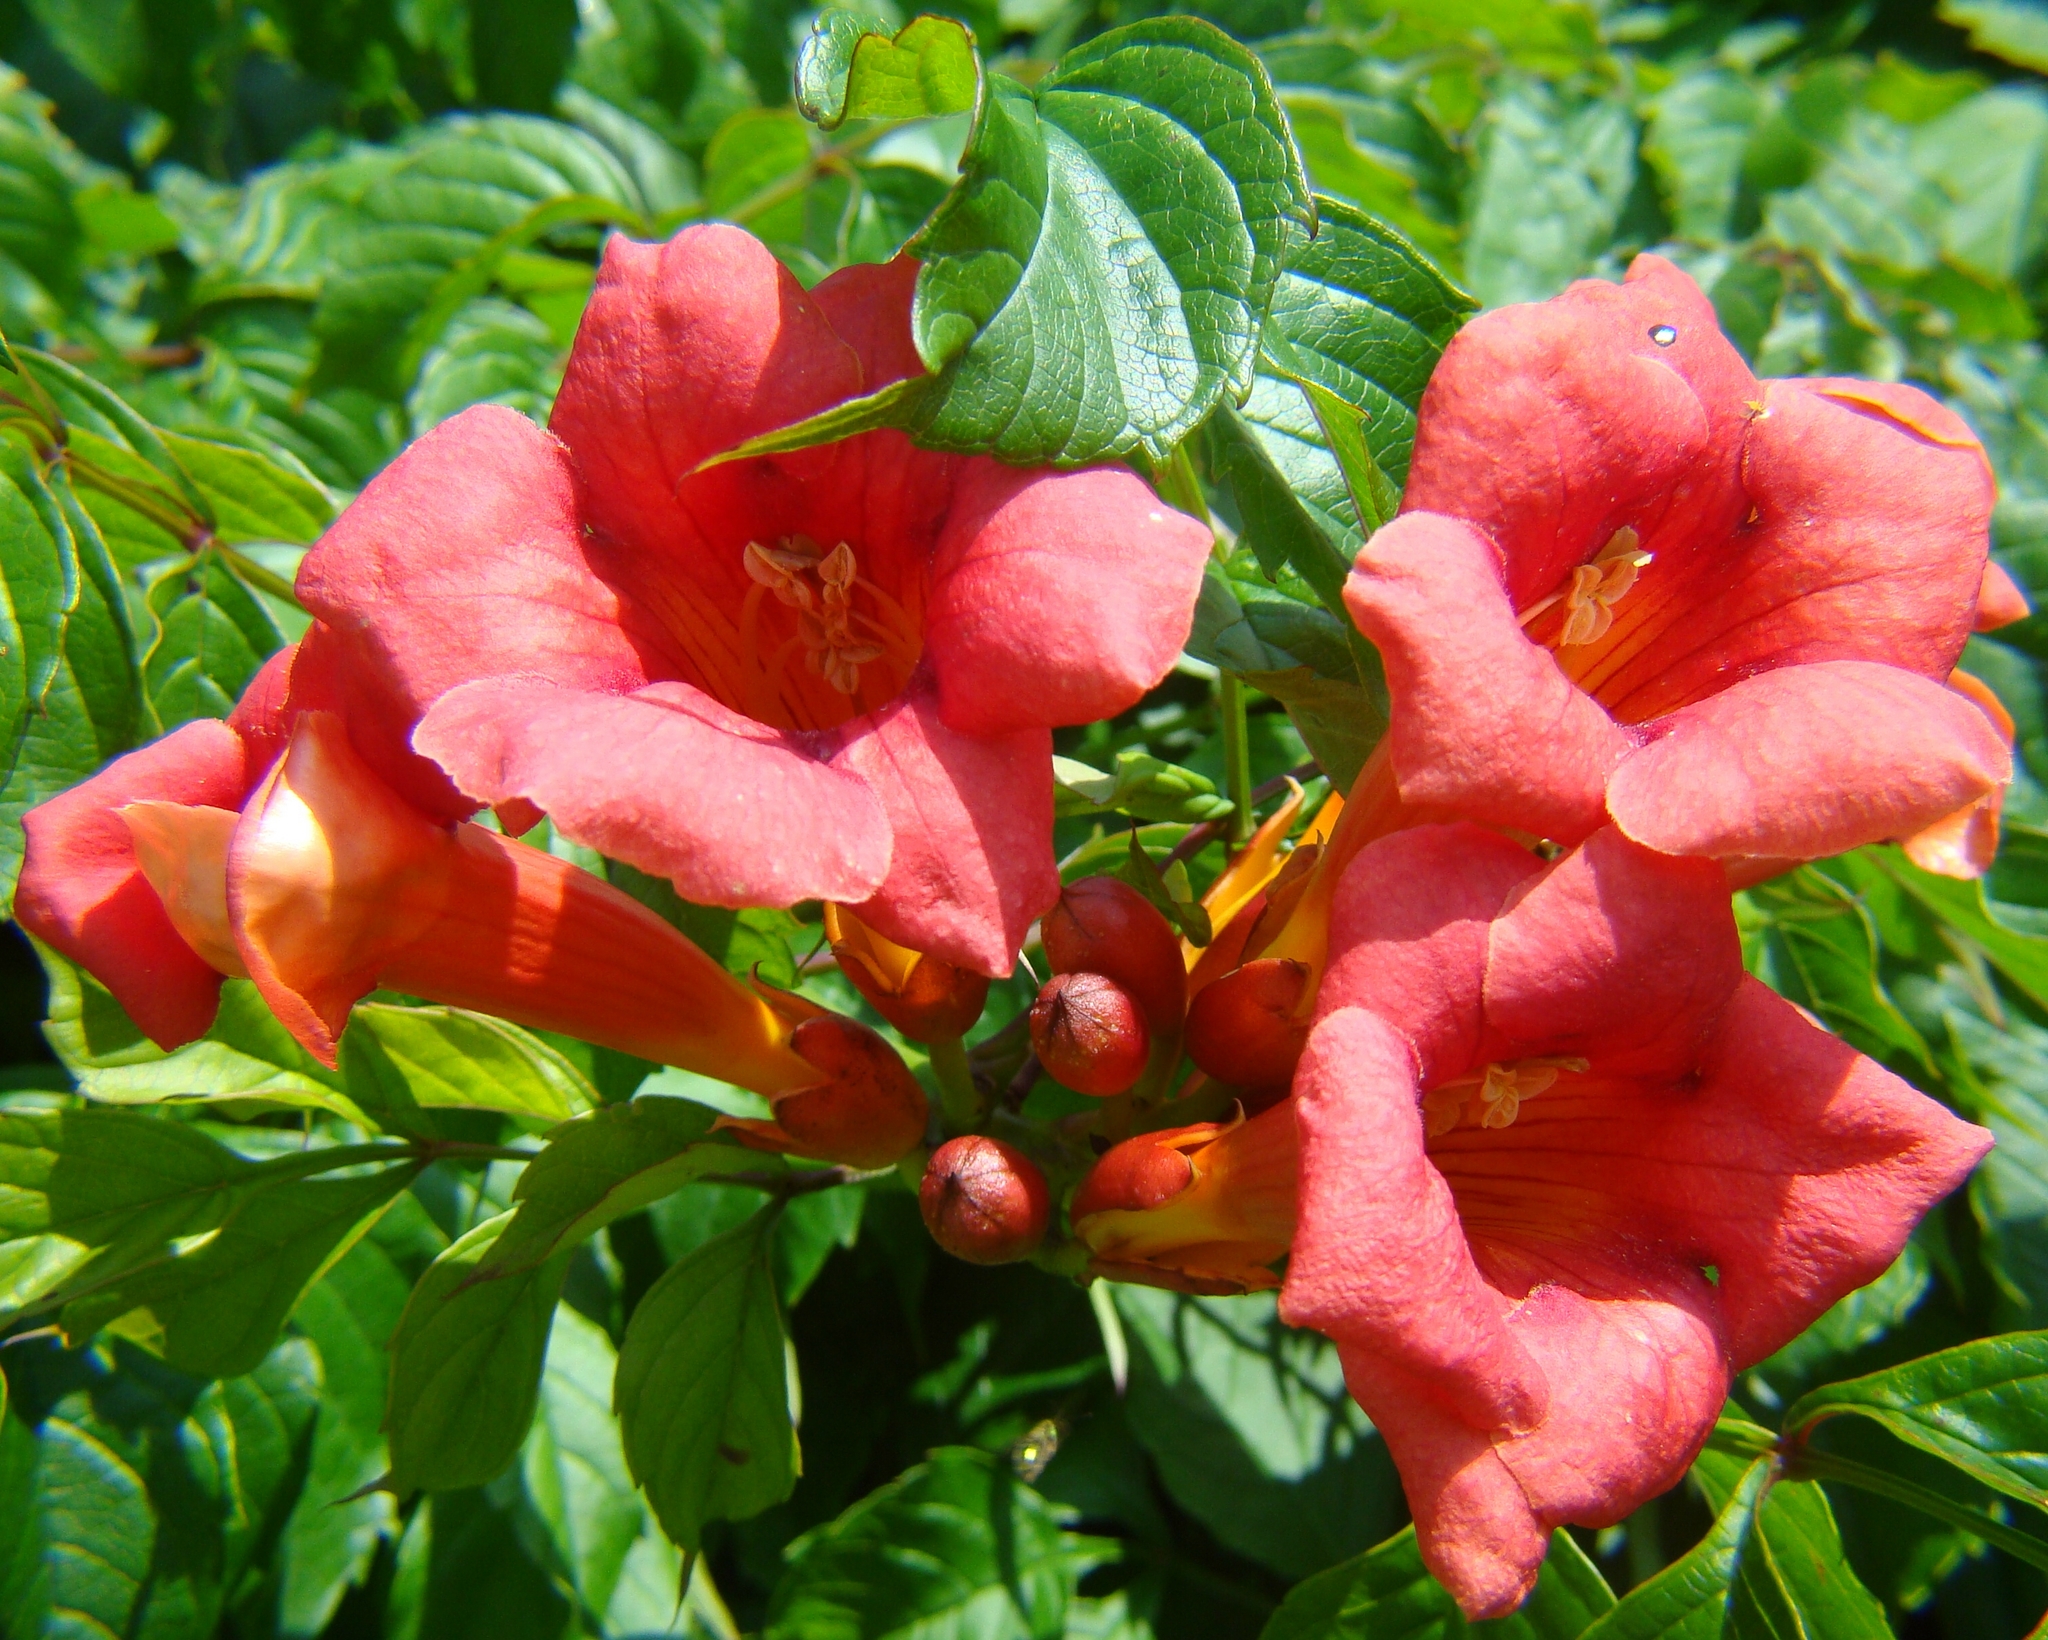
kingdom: Plantae
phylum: Tracheophyta
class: Magnoliopsida
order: Lamiales
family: Bignoniaceae
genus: Campsis
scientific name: Campsis radicans
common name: Trumpet-creeper
